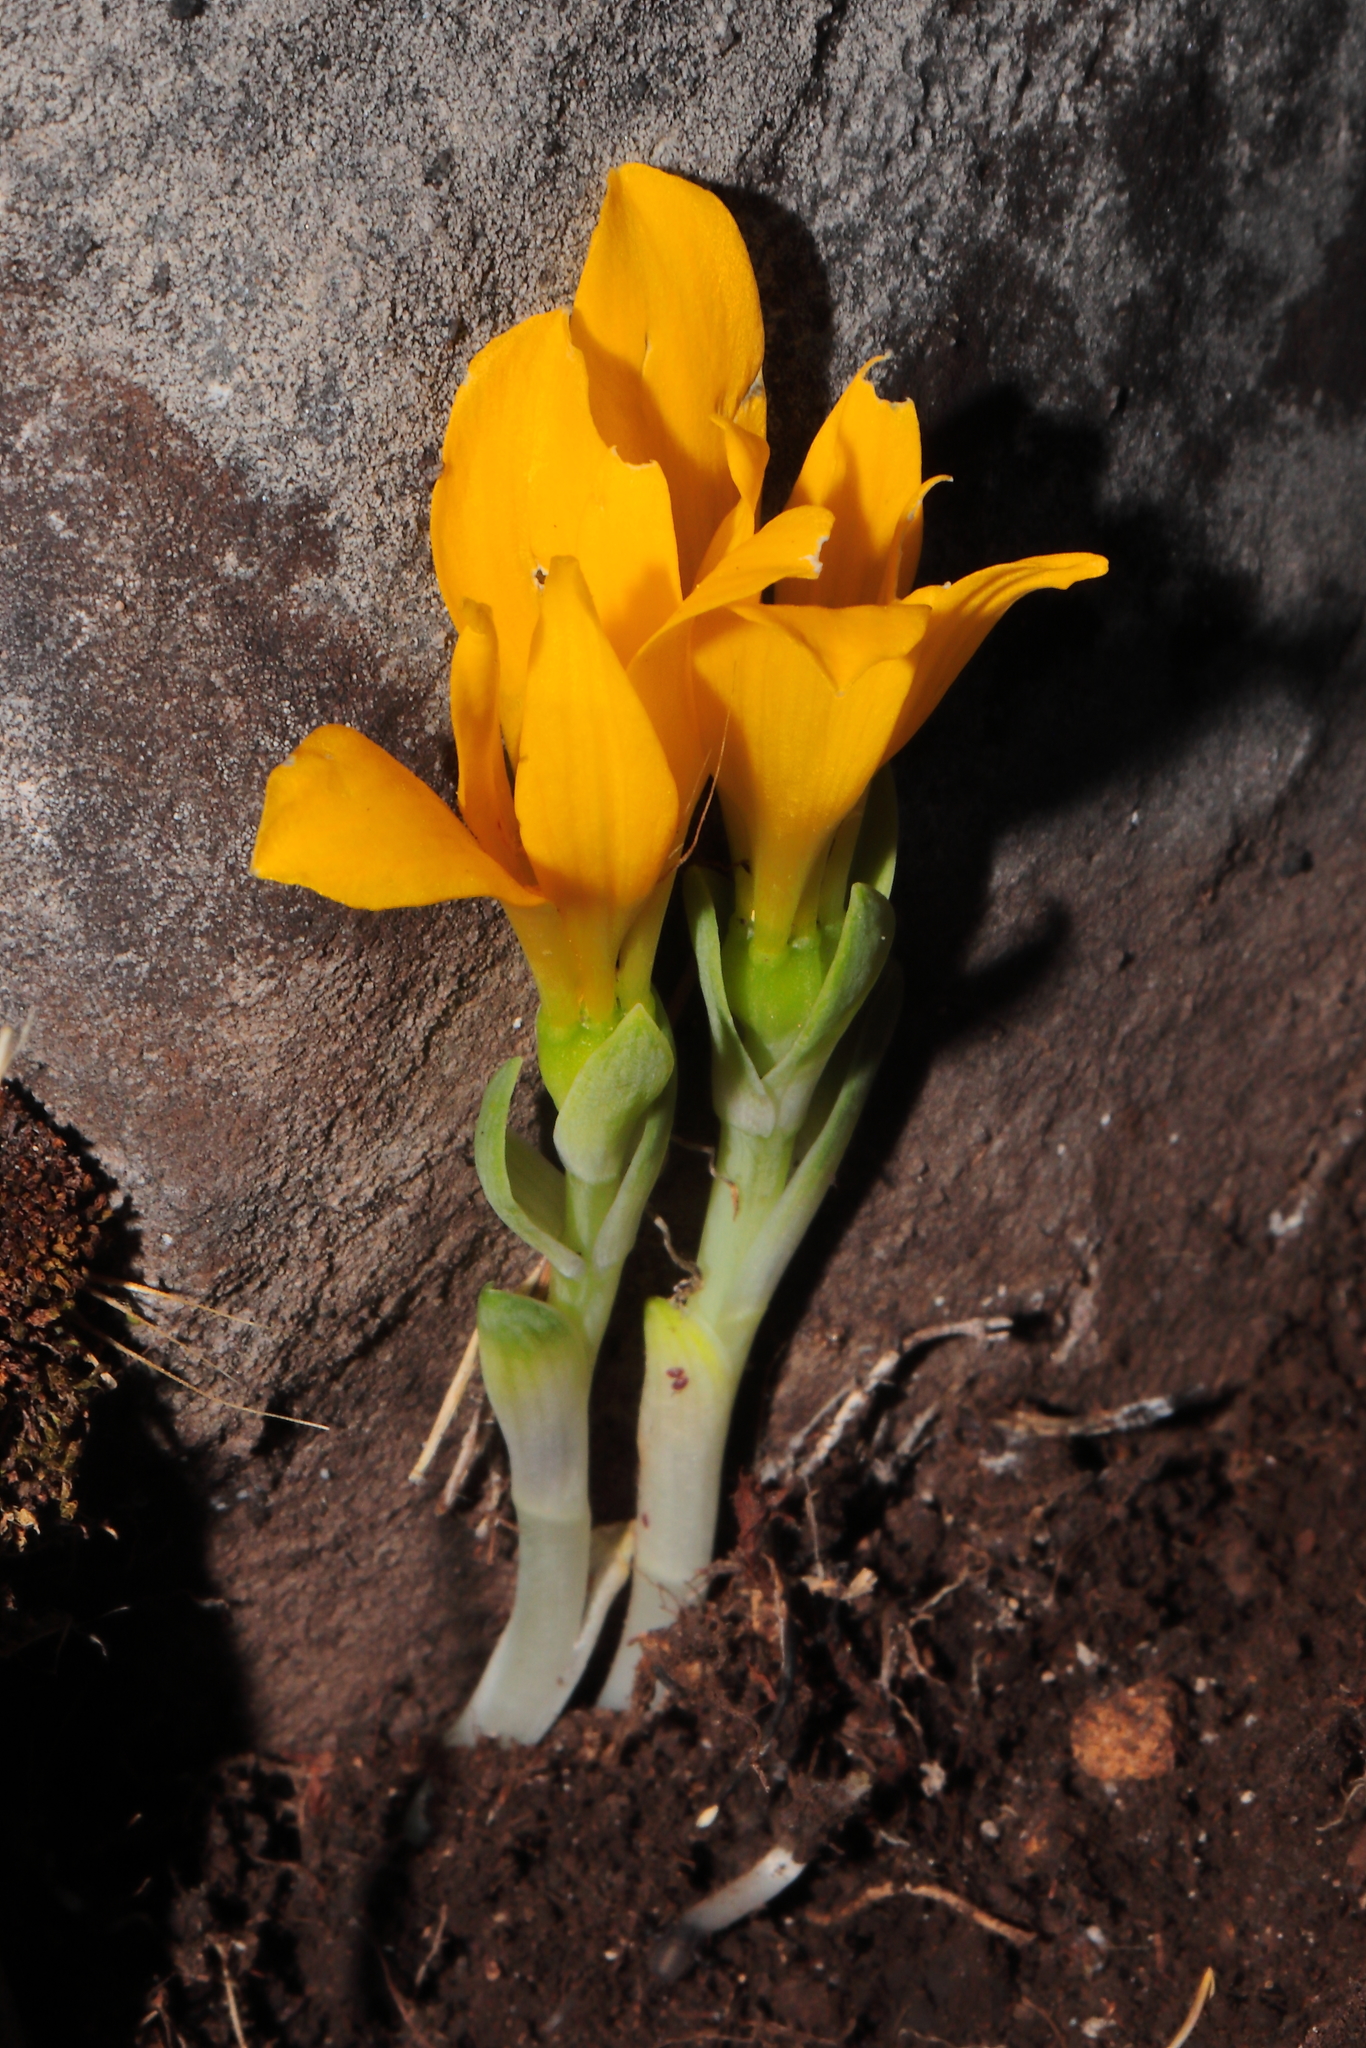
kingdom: Plantae
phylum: Tracheophyta
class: Liliopsida
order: Liliales
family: Alstroemeriaceae
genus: Alstroemeria
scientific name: Alstroemeria pygmaea
